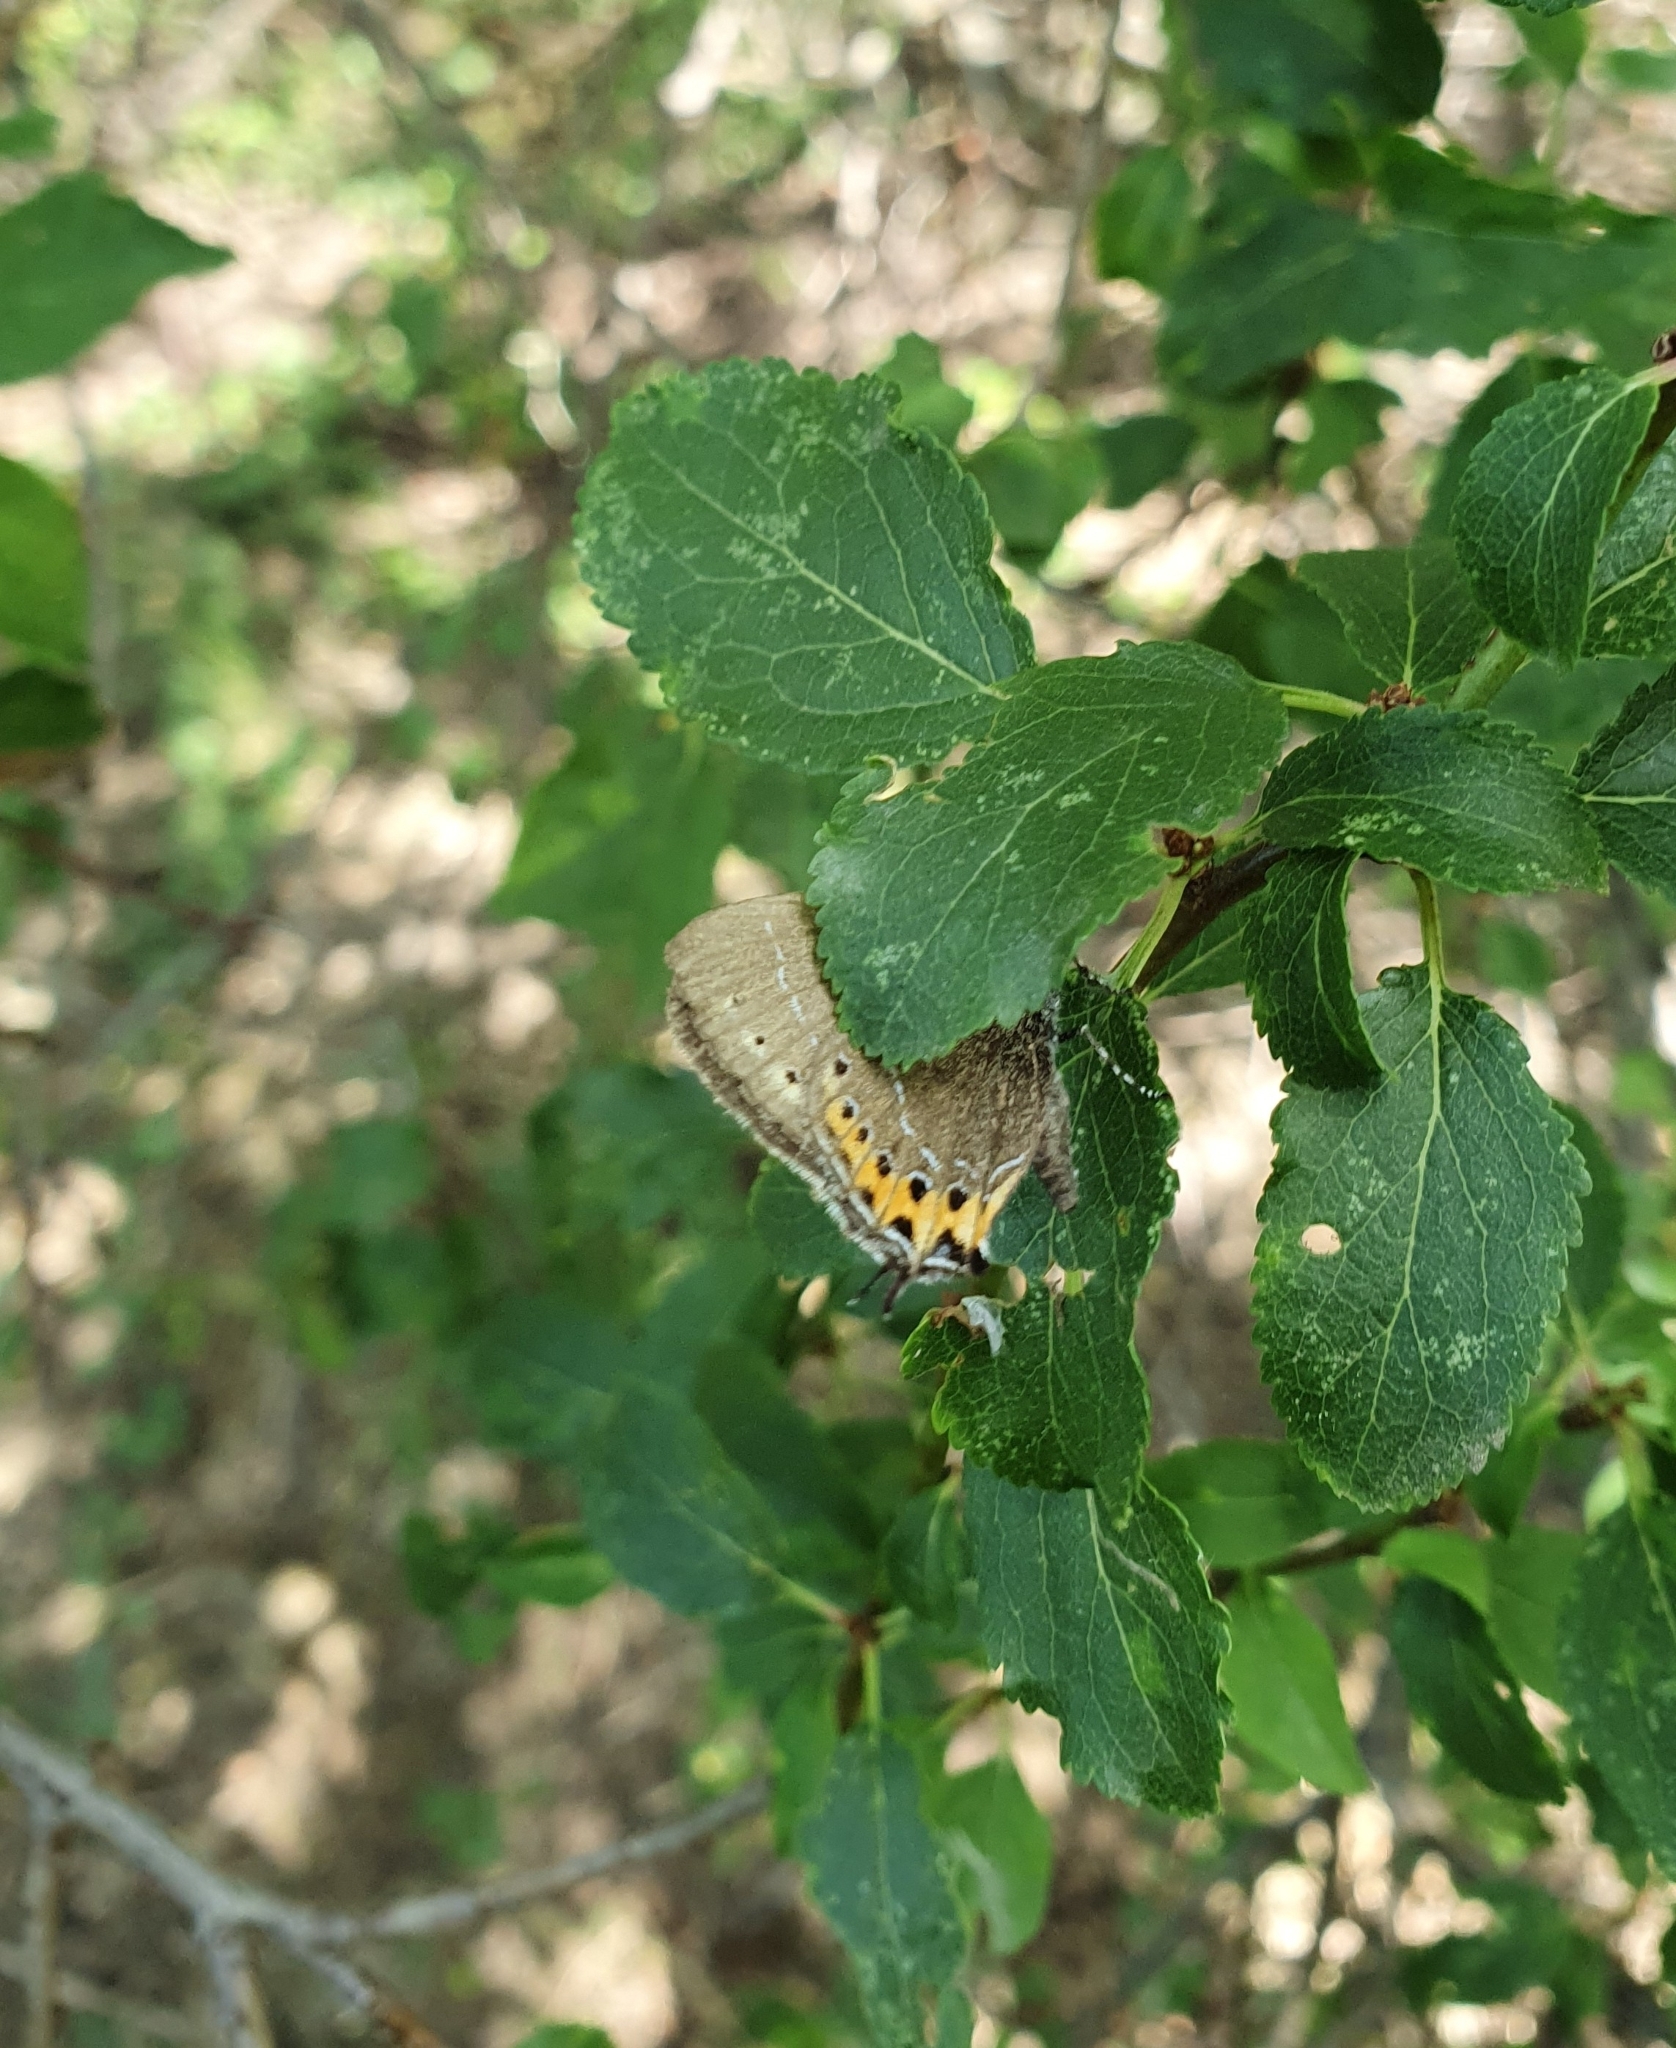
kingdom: Animalia
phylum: Arthropoda
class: Insecta
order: Lepidoptera
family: Lycaenidae
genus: Fixsenia
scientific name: Fixsenia pruni
